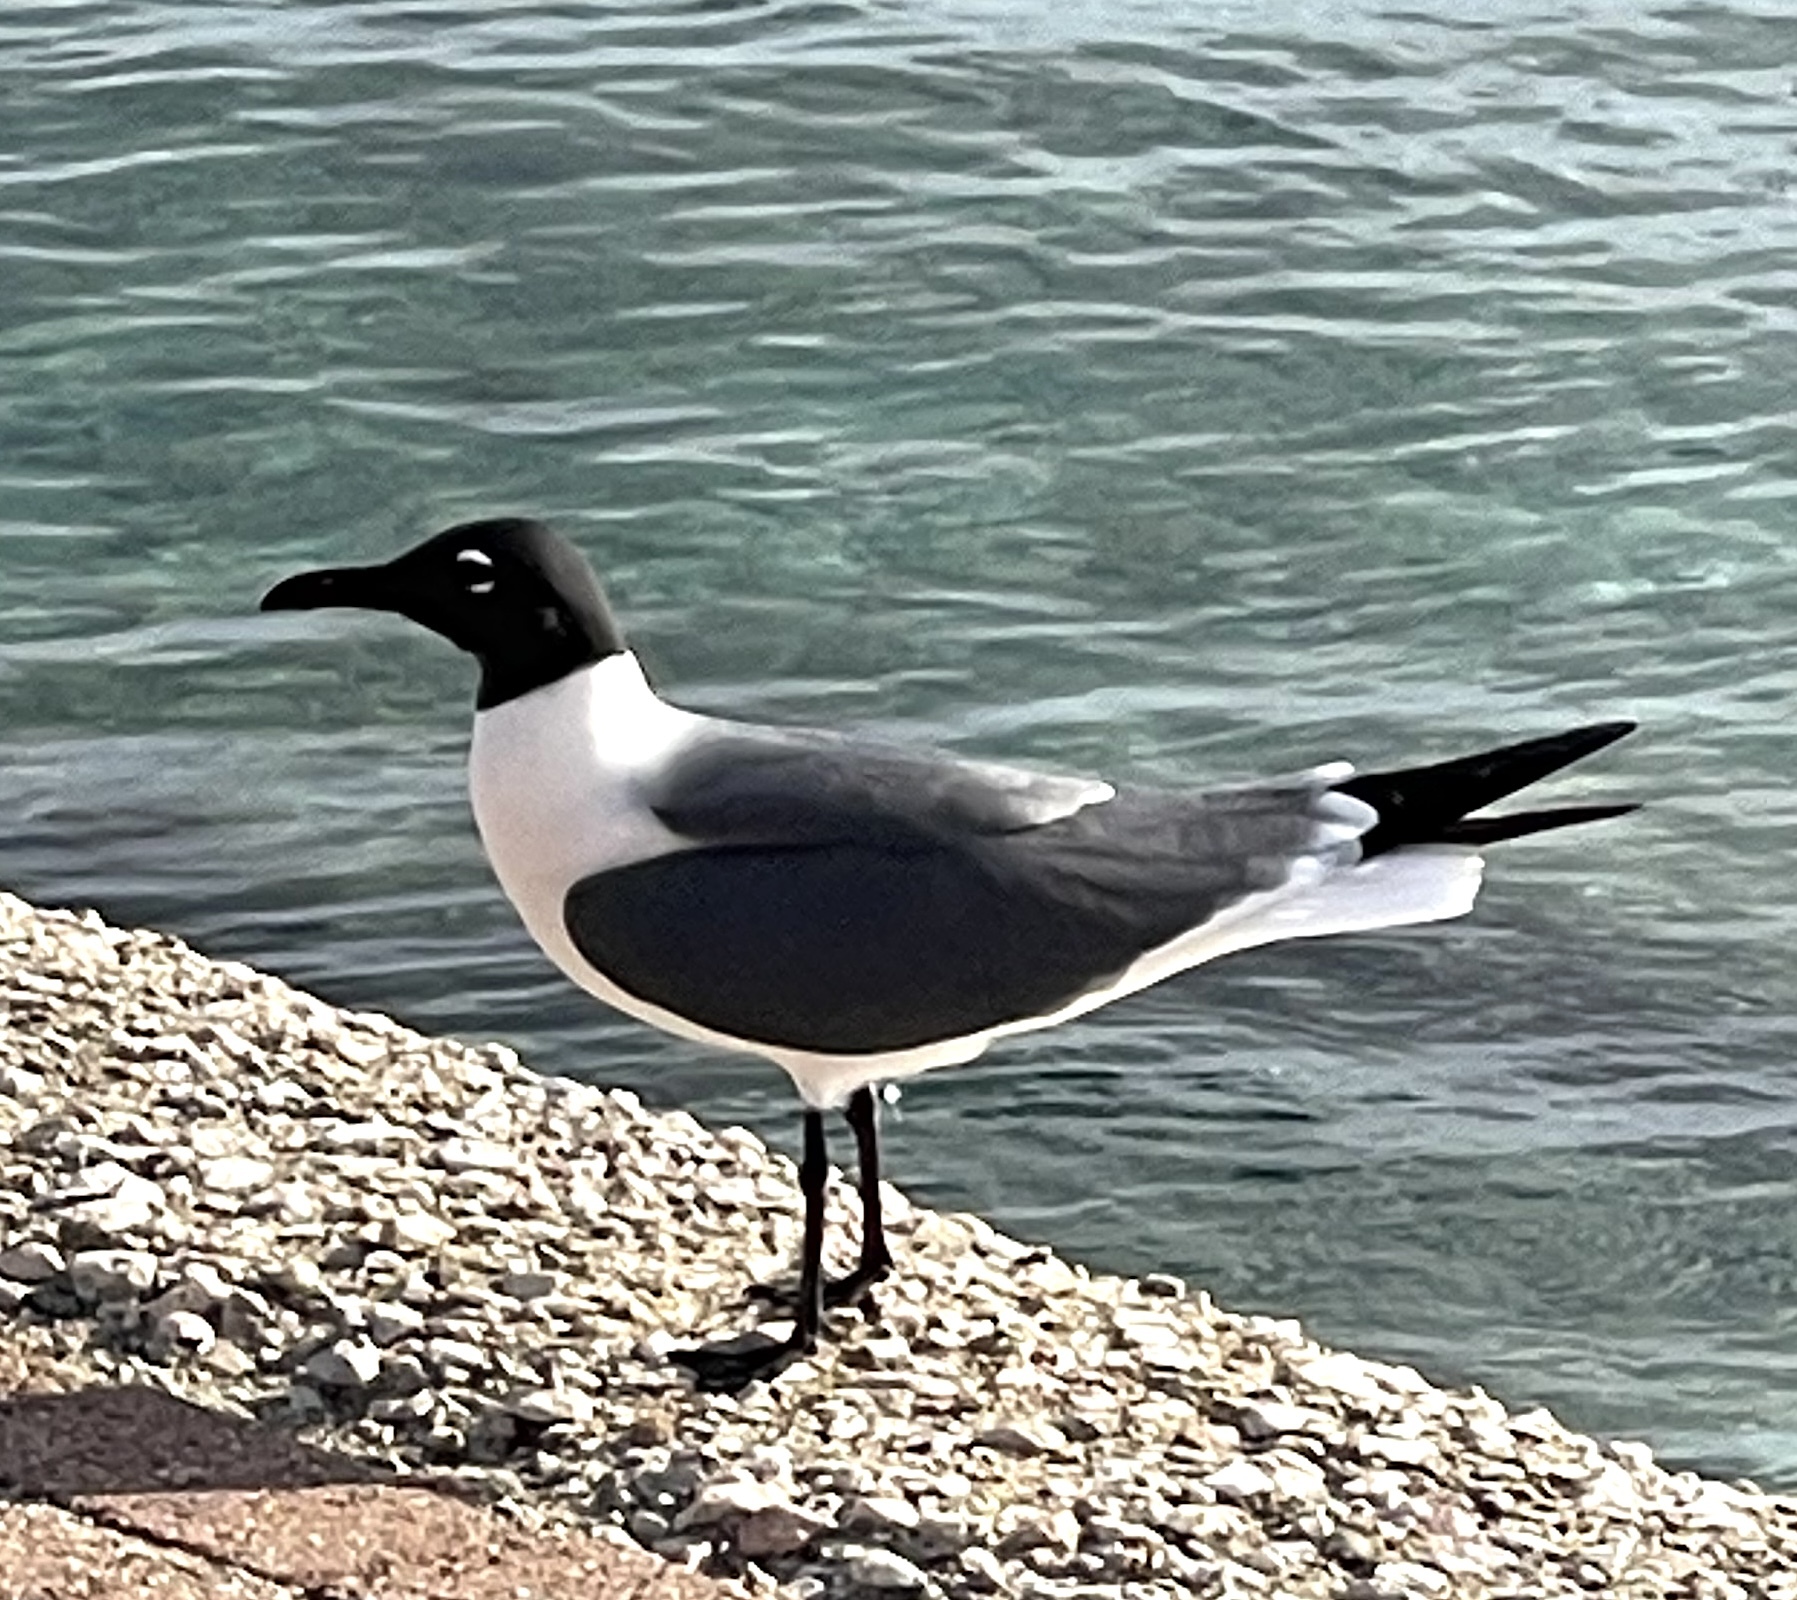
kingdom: Animalia
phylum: Chordata
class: Aves
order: Charadriiformes
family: Laridae
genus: Leucophaeus
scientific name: Leucophaeus atricilla
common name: Laughing gull
